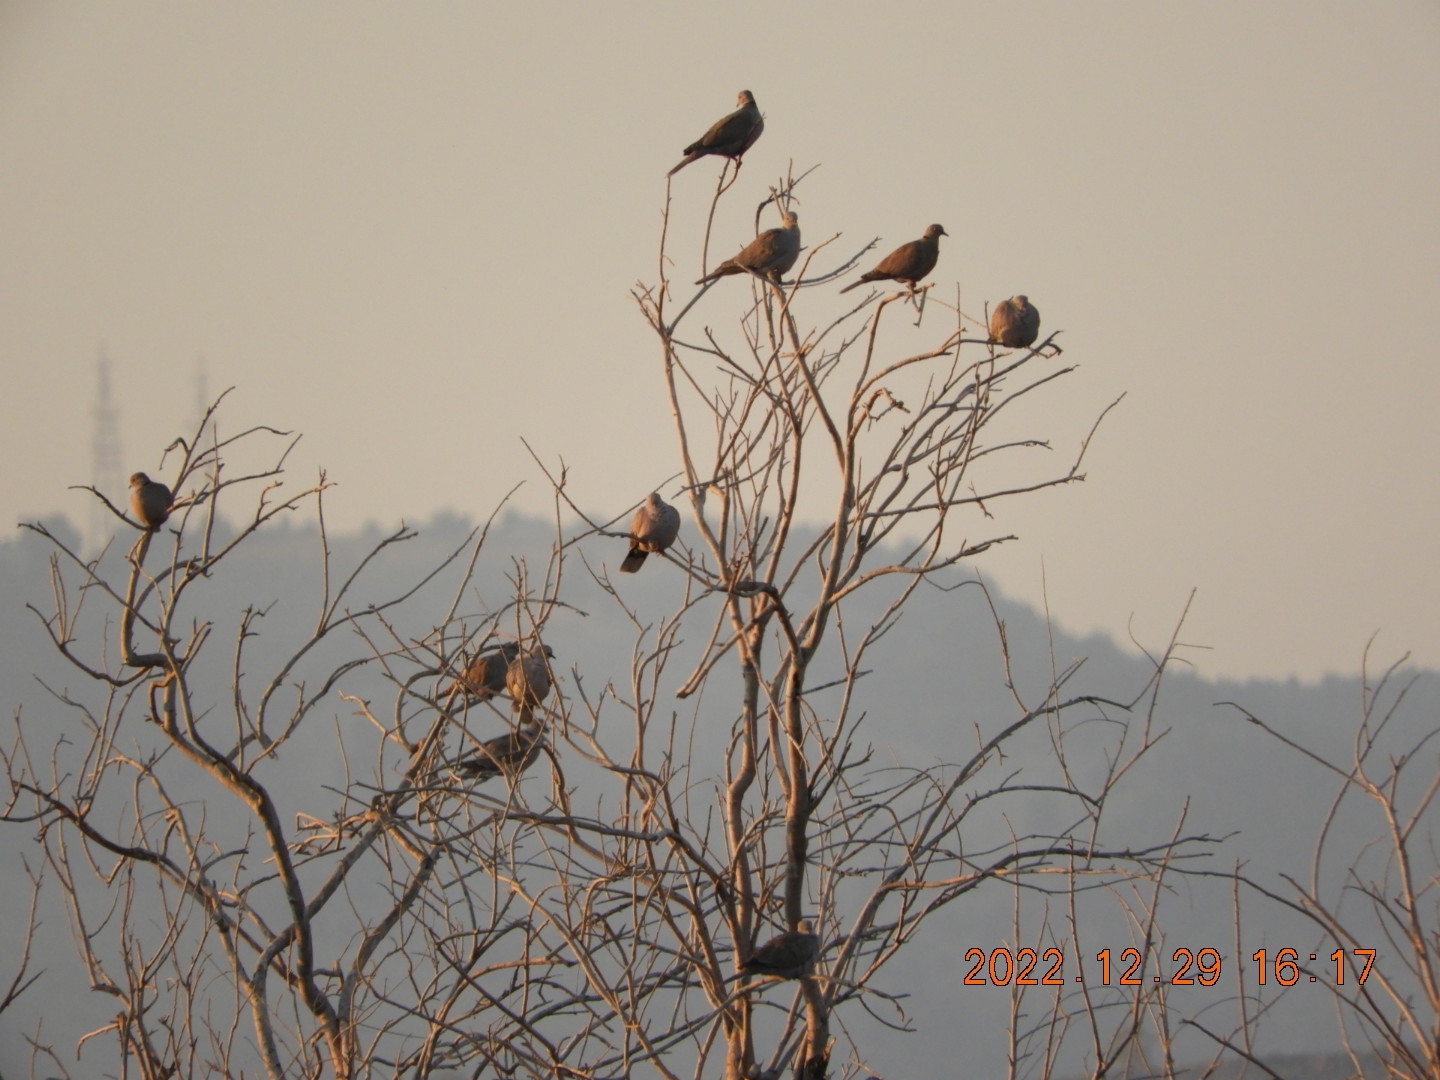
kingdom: Animalia
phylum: Chordata
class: Aves
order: Columbiformes
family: Columbidae
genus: Streptopelia
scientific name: Streptopelia decaocto
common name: Eurasian collared dove
